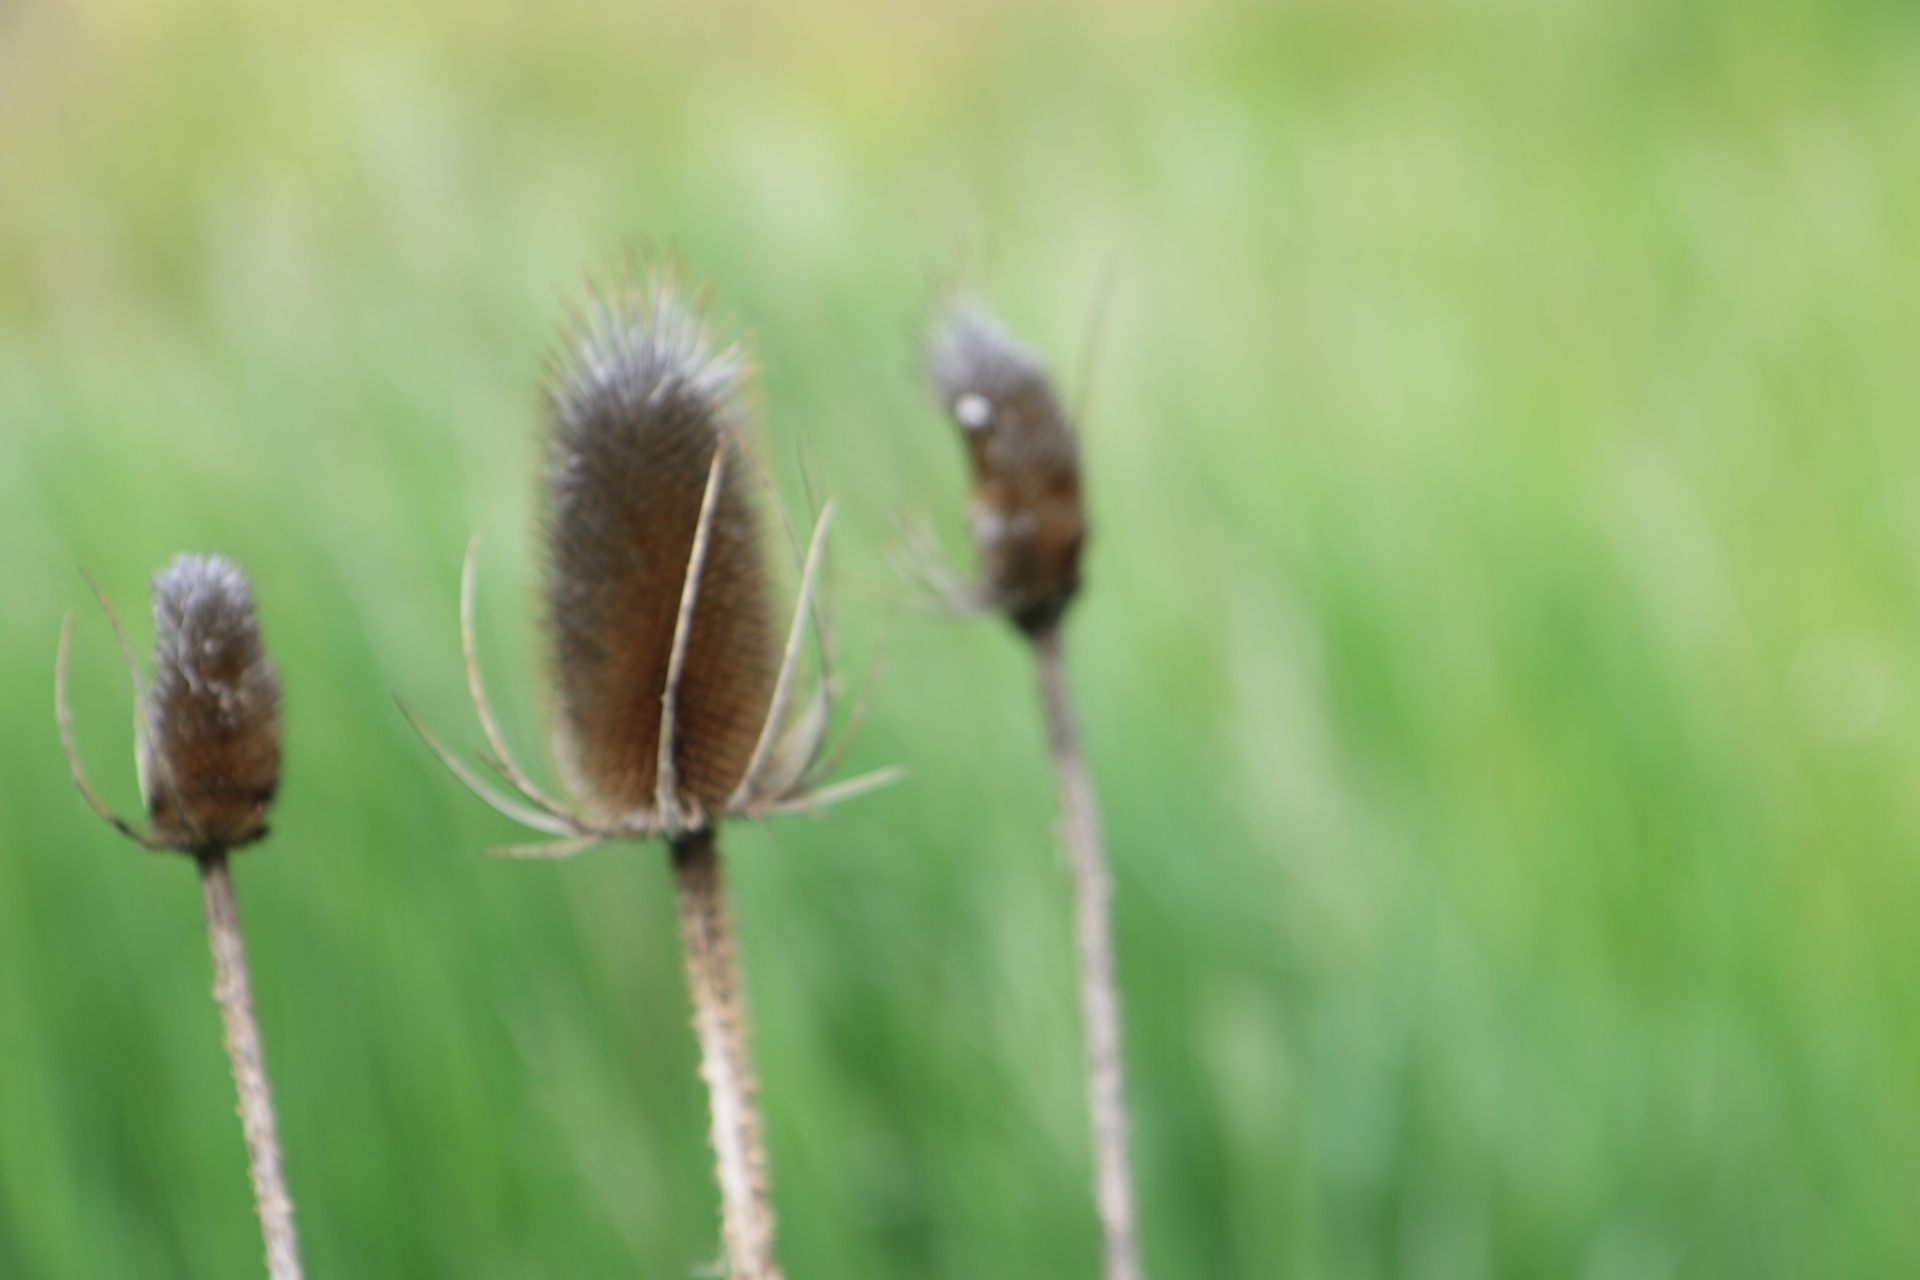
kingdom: Plantae
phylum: Tracheophyta
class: Magnoliopsida
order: Dipsacales
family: Caprifoliaceae
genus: Dipsacus
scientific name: Dipsacus fullonum
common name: Teasel
